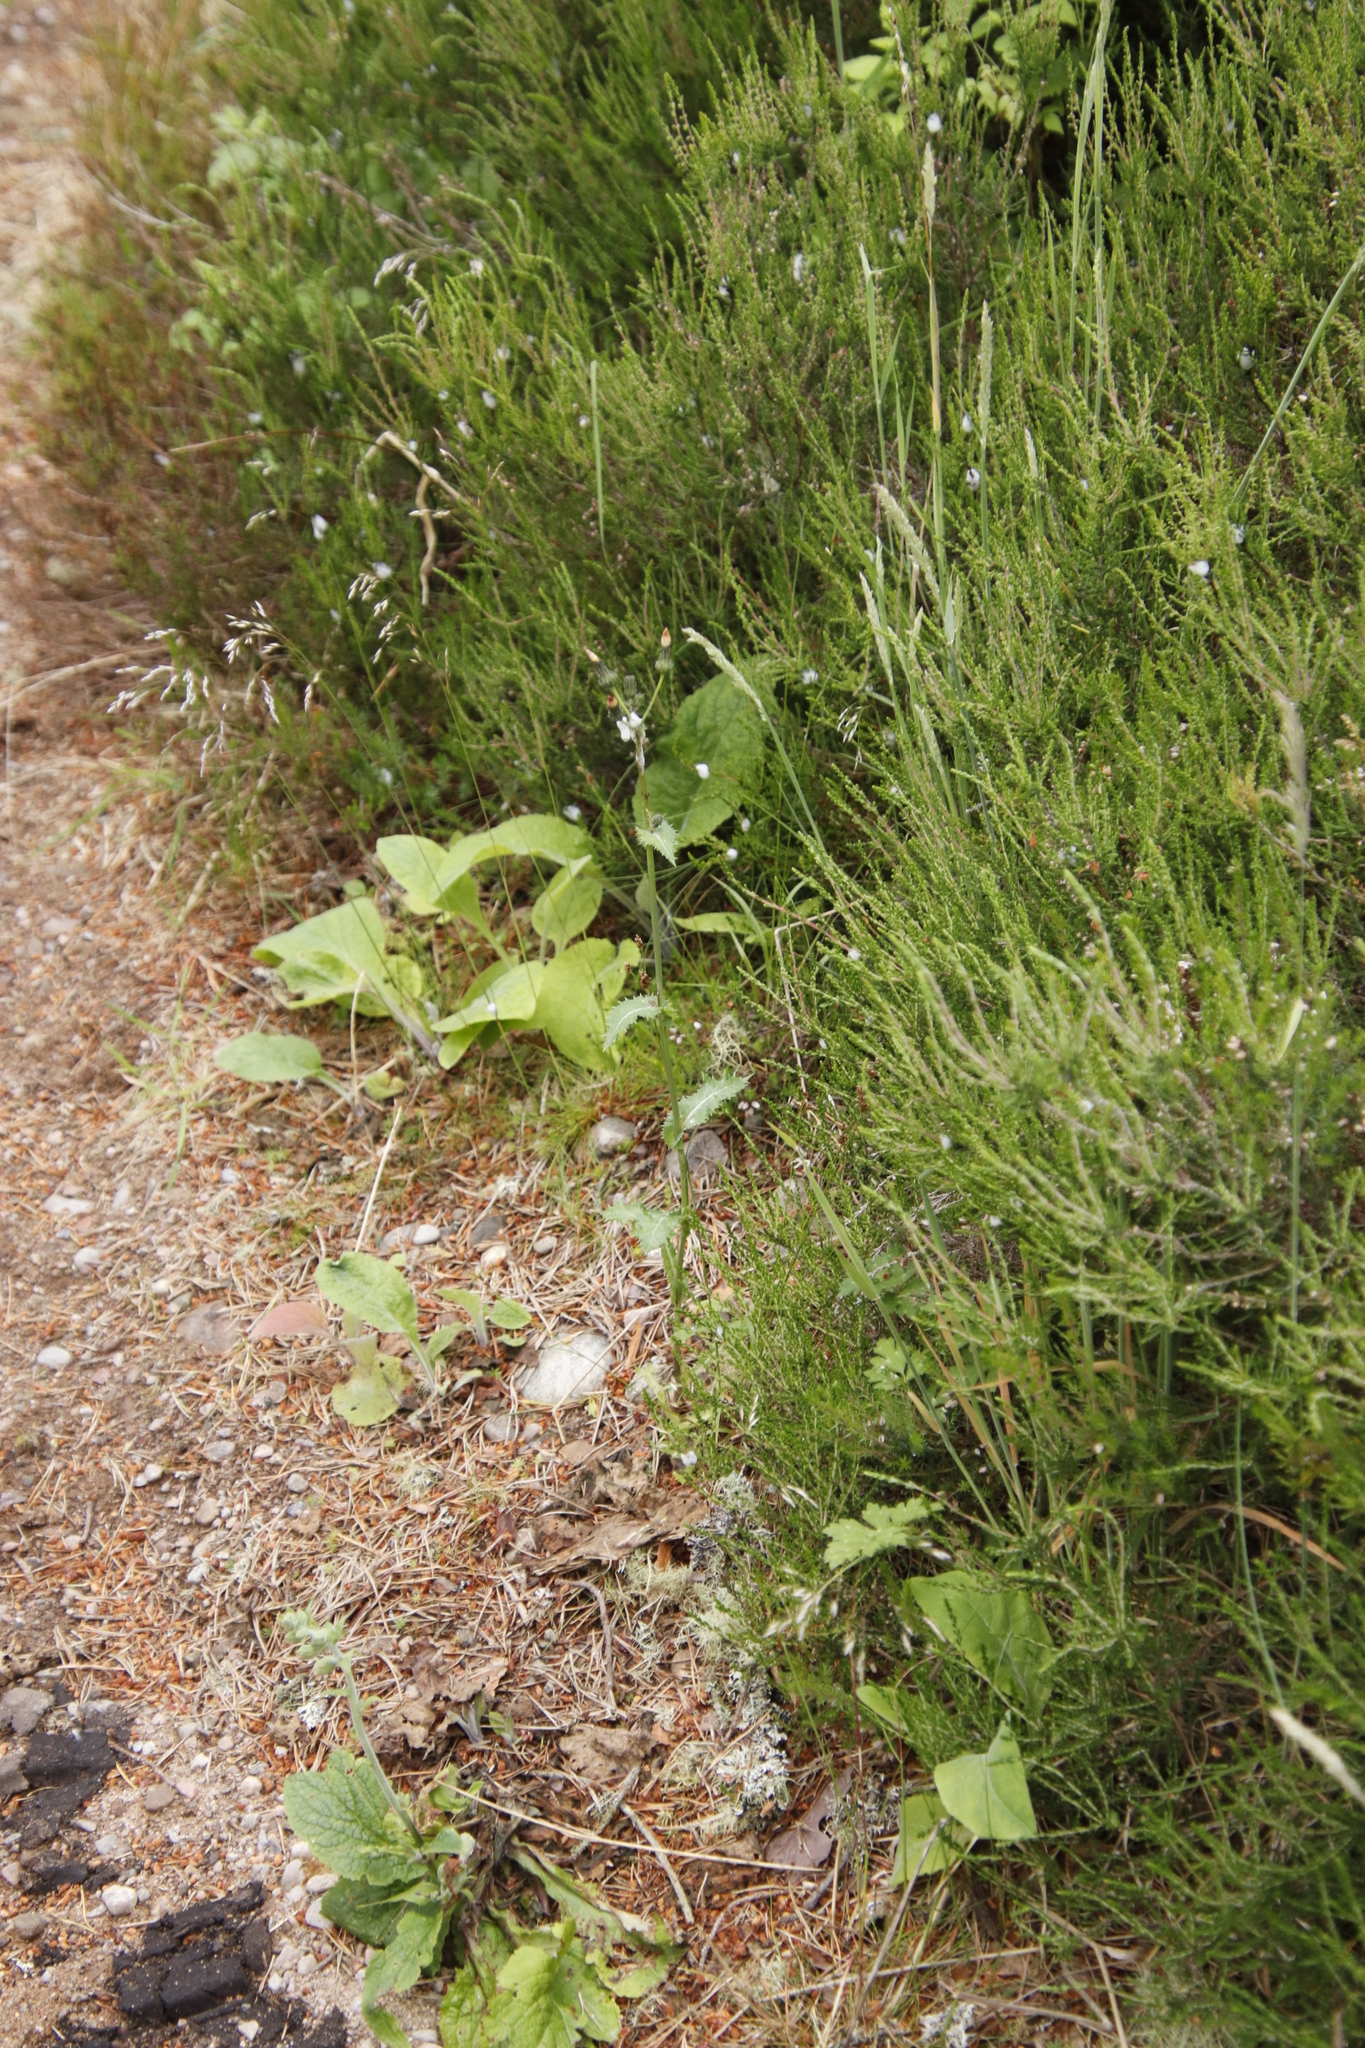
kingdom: Plantae
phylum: Tracheophyta
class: Magnoliopsida
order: Asterales
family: Asteraceae
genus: Sonchus
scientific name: Sonchus asper
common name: Prickly sow-thistle
